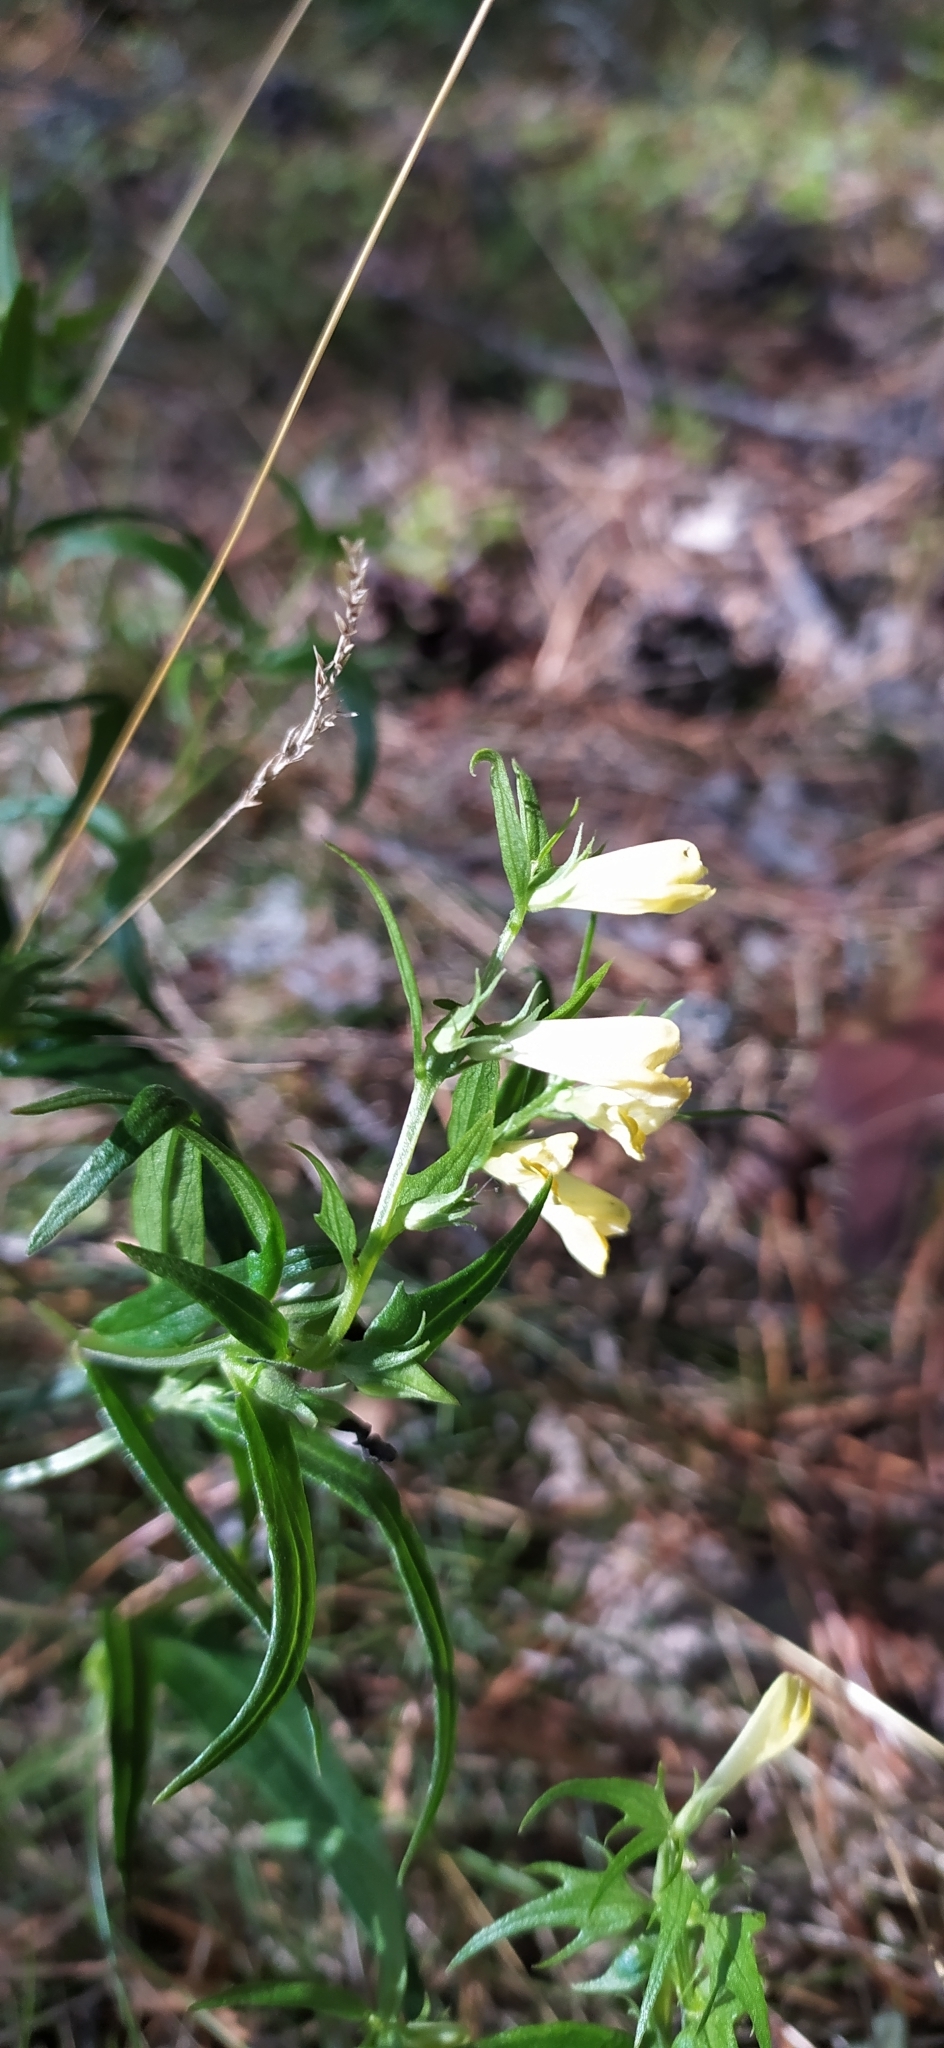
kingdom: Plantae
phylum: Tracheophyta
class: Magnoliopsida
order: Lamiales
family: Orobanchaceae
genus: Melampyrum
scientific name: Melampyrum pratense
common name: Common cow-wheat
